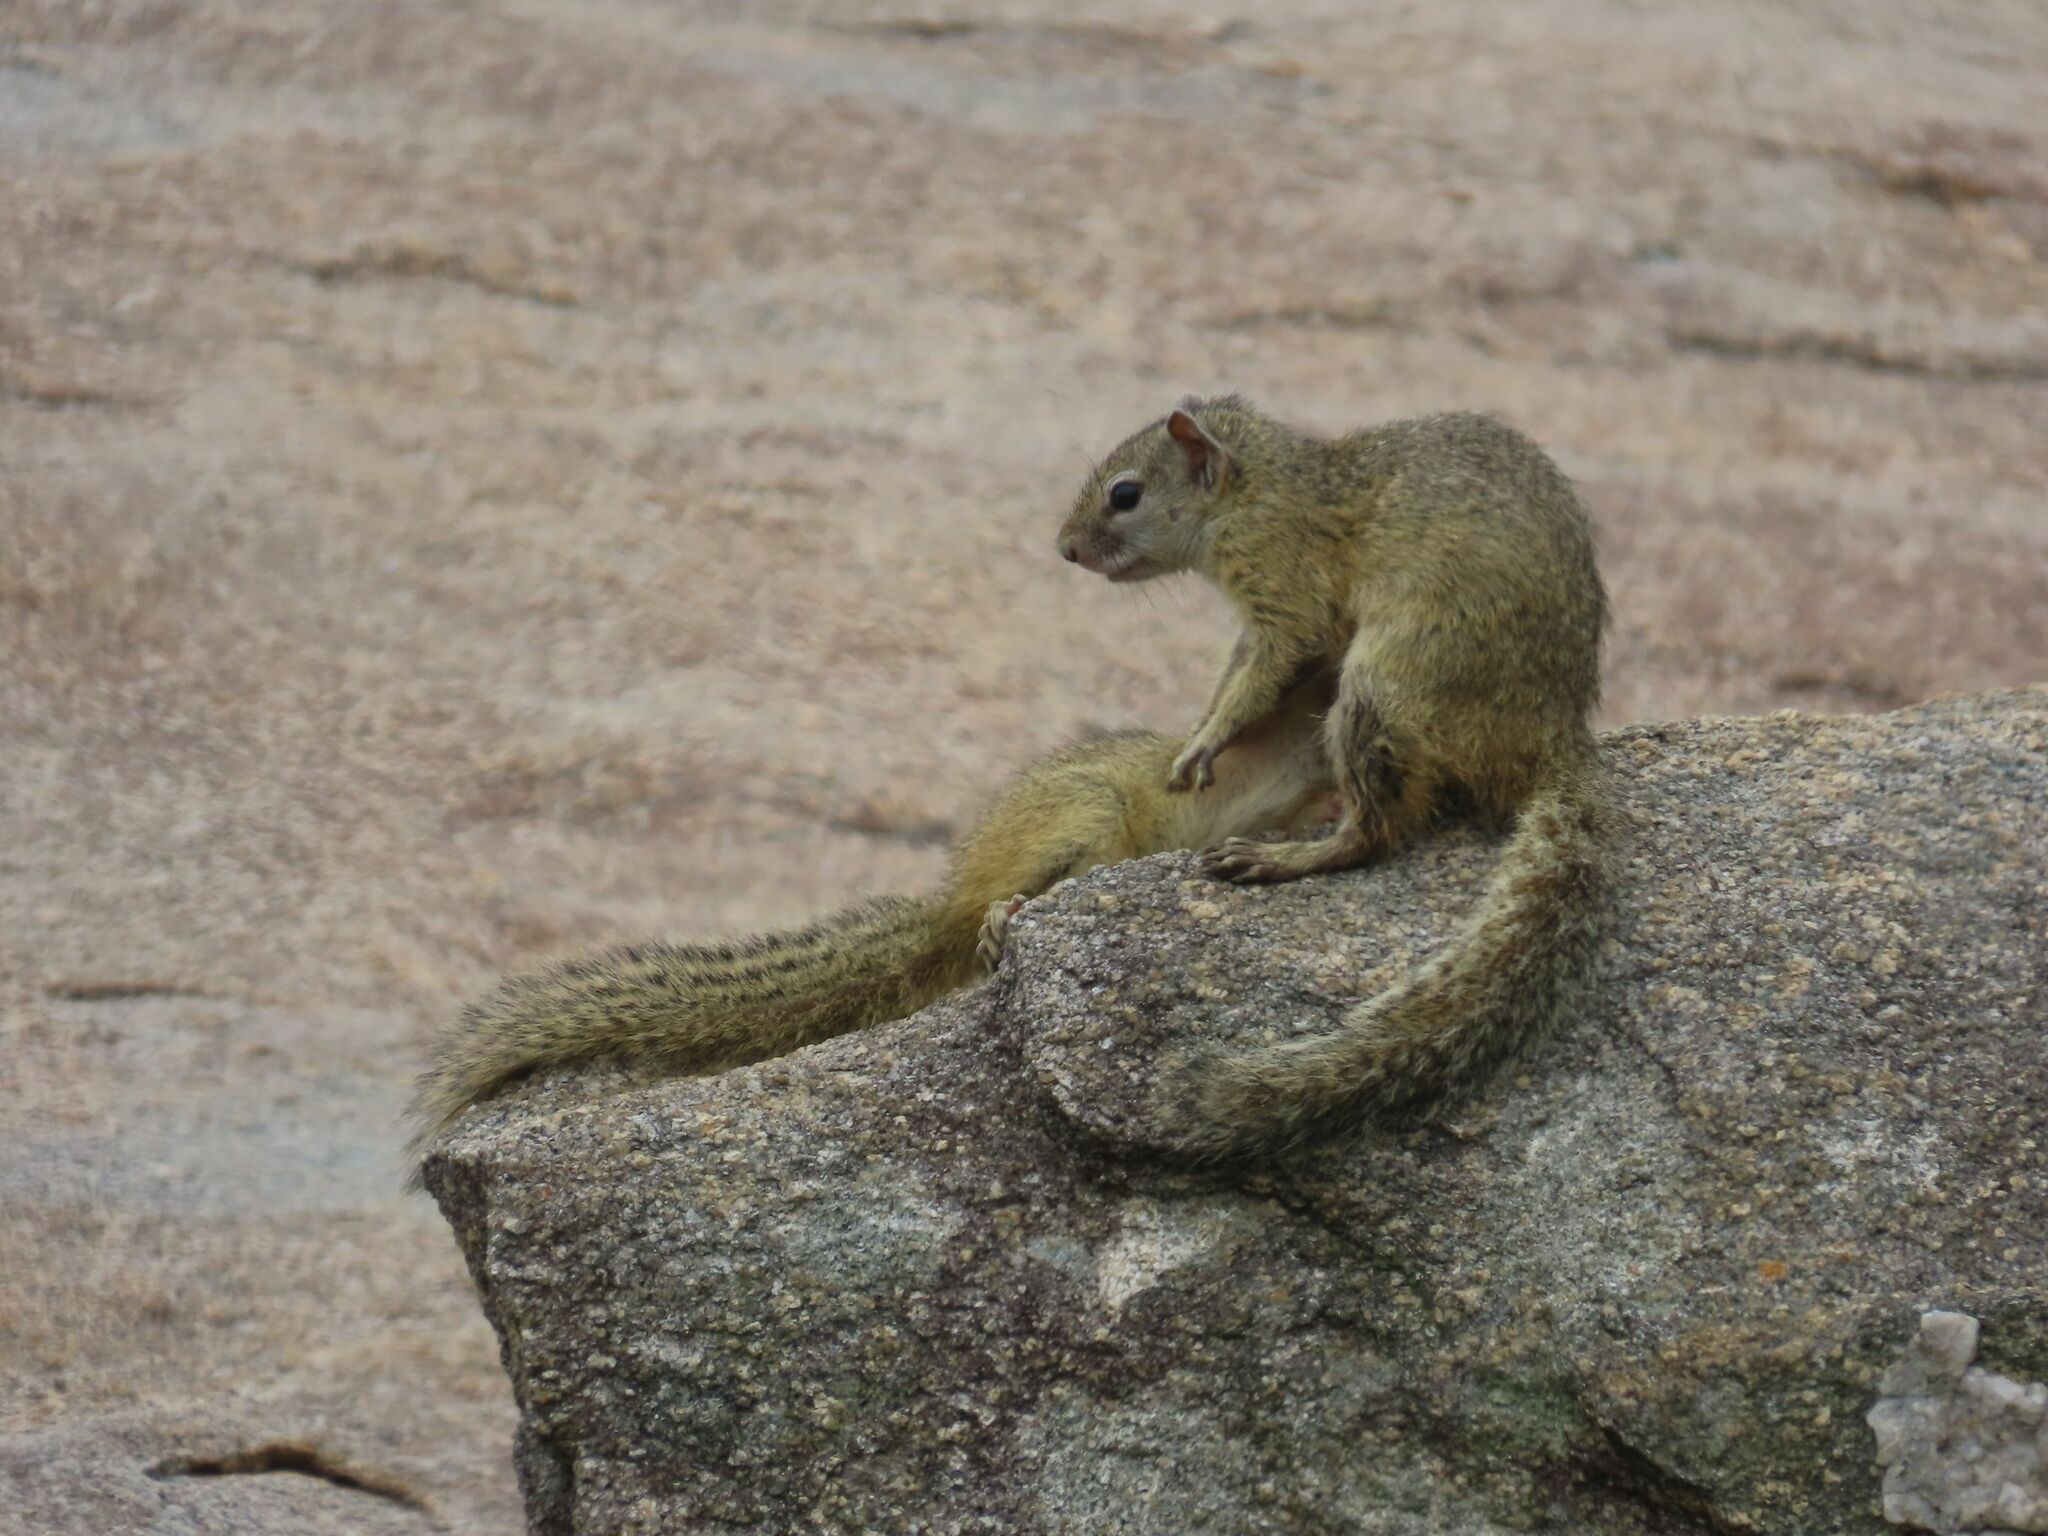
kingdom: Animalia
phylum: Chordata
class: Mammalia
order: Rodentia
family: Sciuridae
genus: Paraxerus
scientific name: Paraxerus cepapi
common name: Smith's bush squirrel
